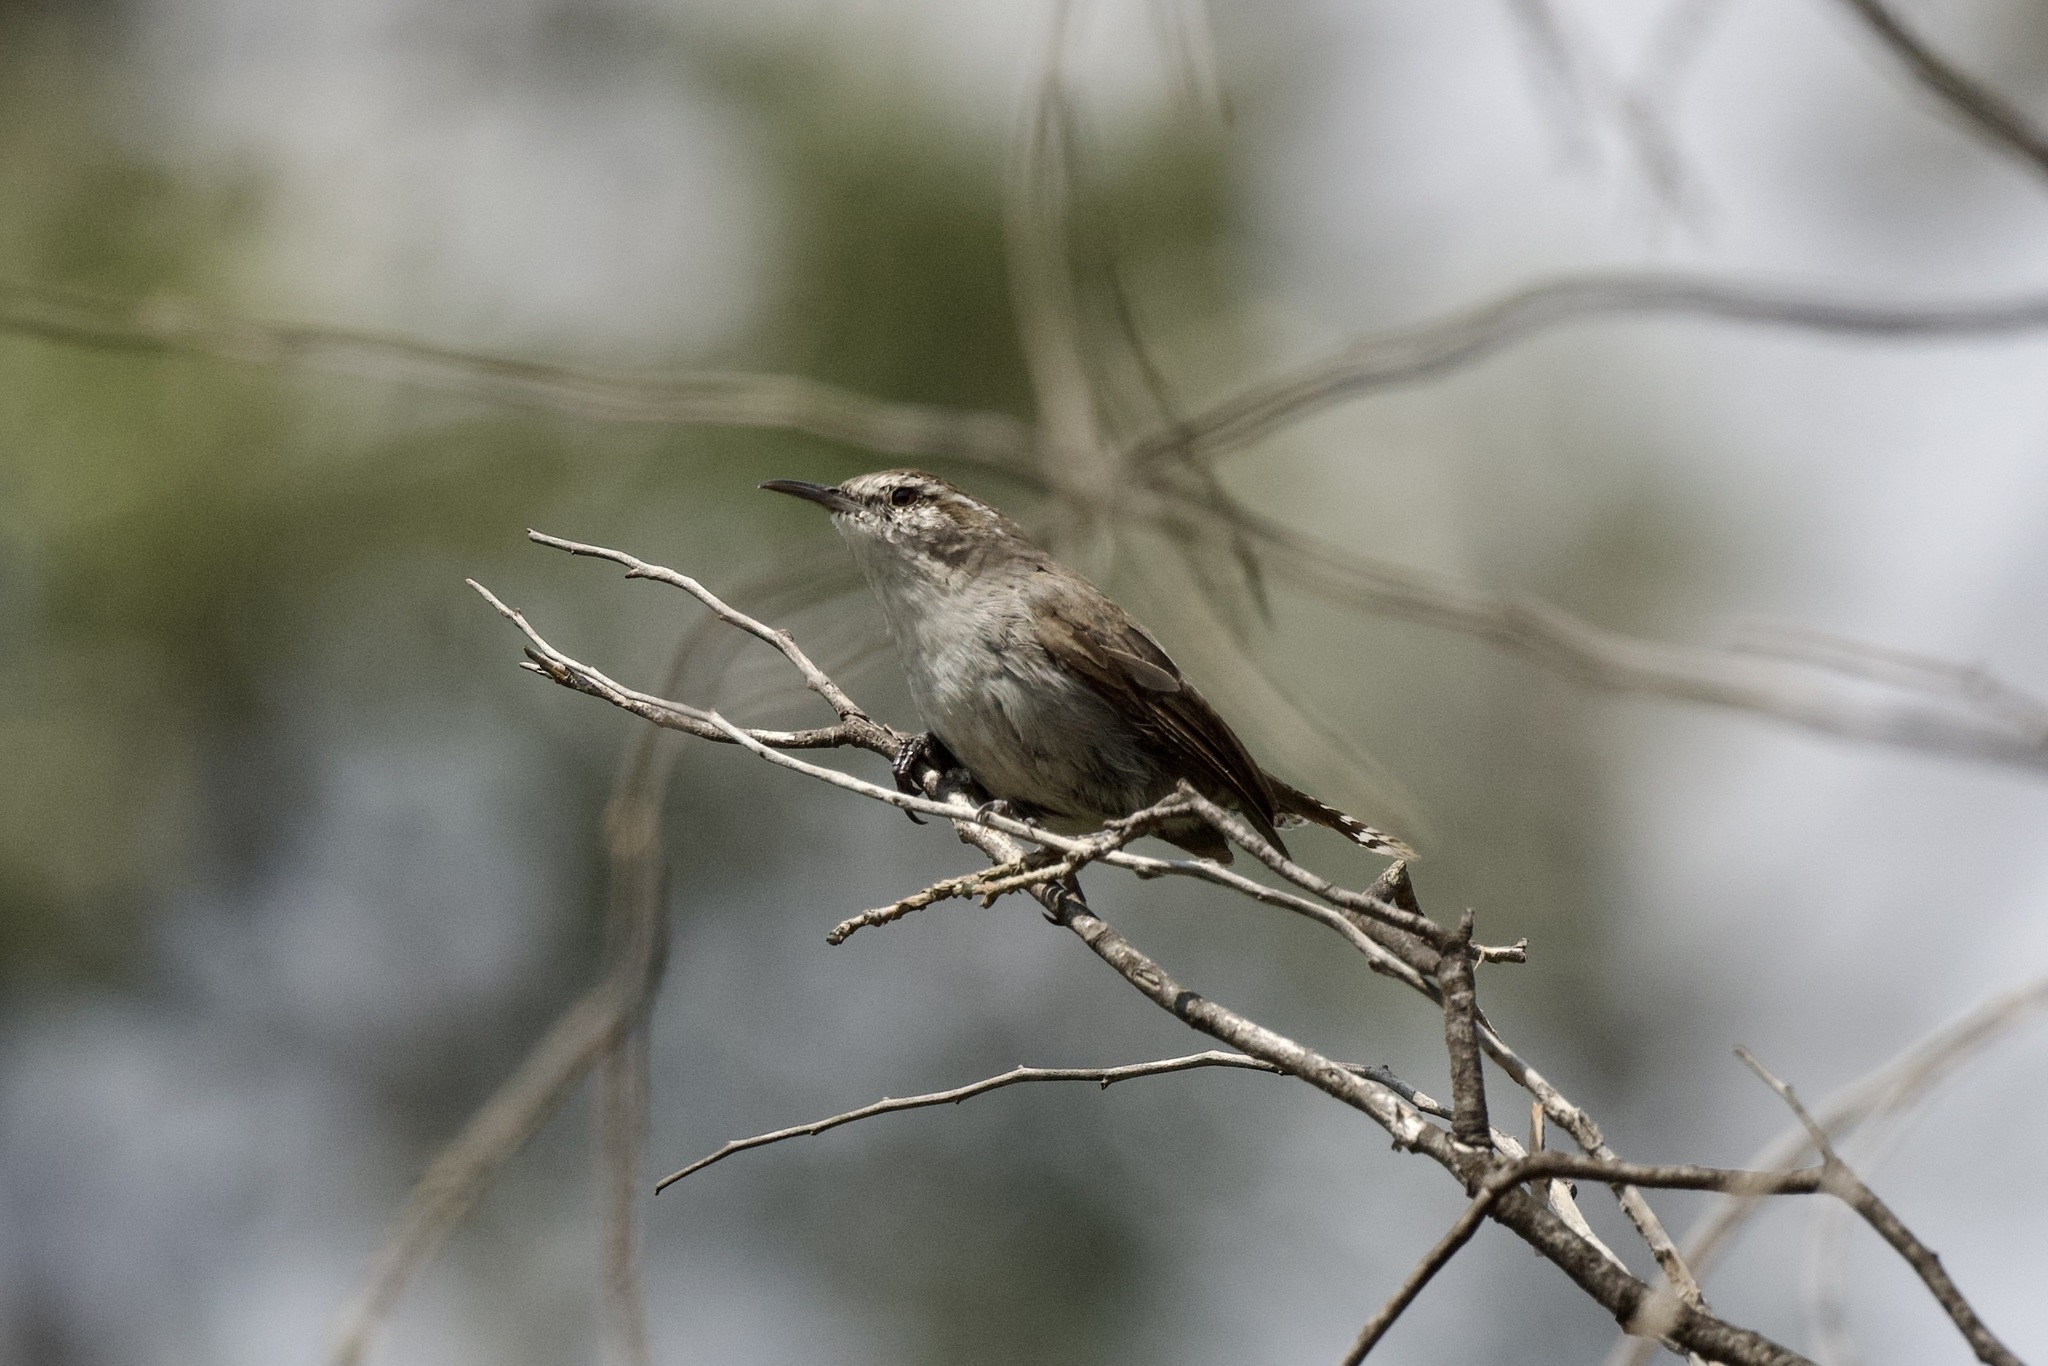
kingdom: Animalia
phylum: Chordata
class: Aves
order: Passeriformes
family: Troglodytidae
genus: Thryomanes
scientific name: Thryomanes bewickii
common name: Bewick's wren
